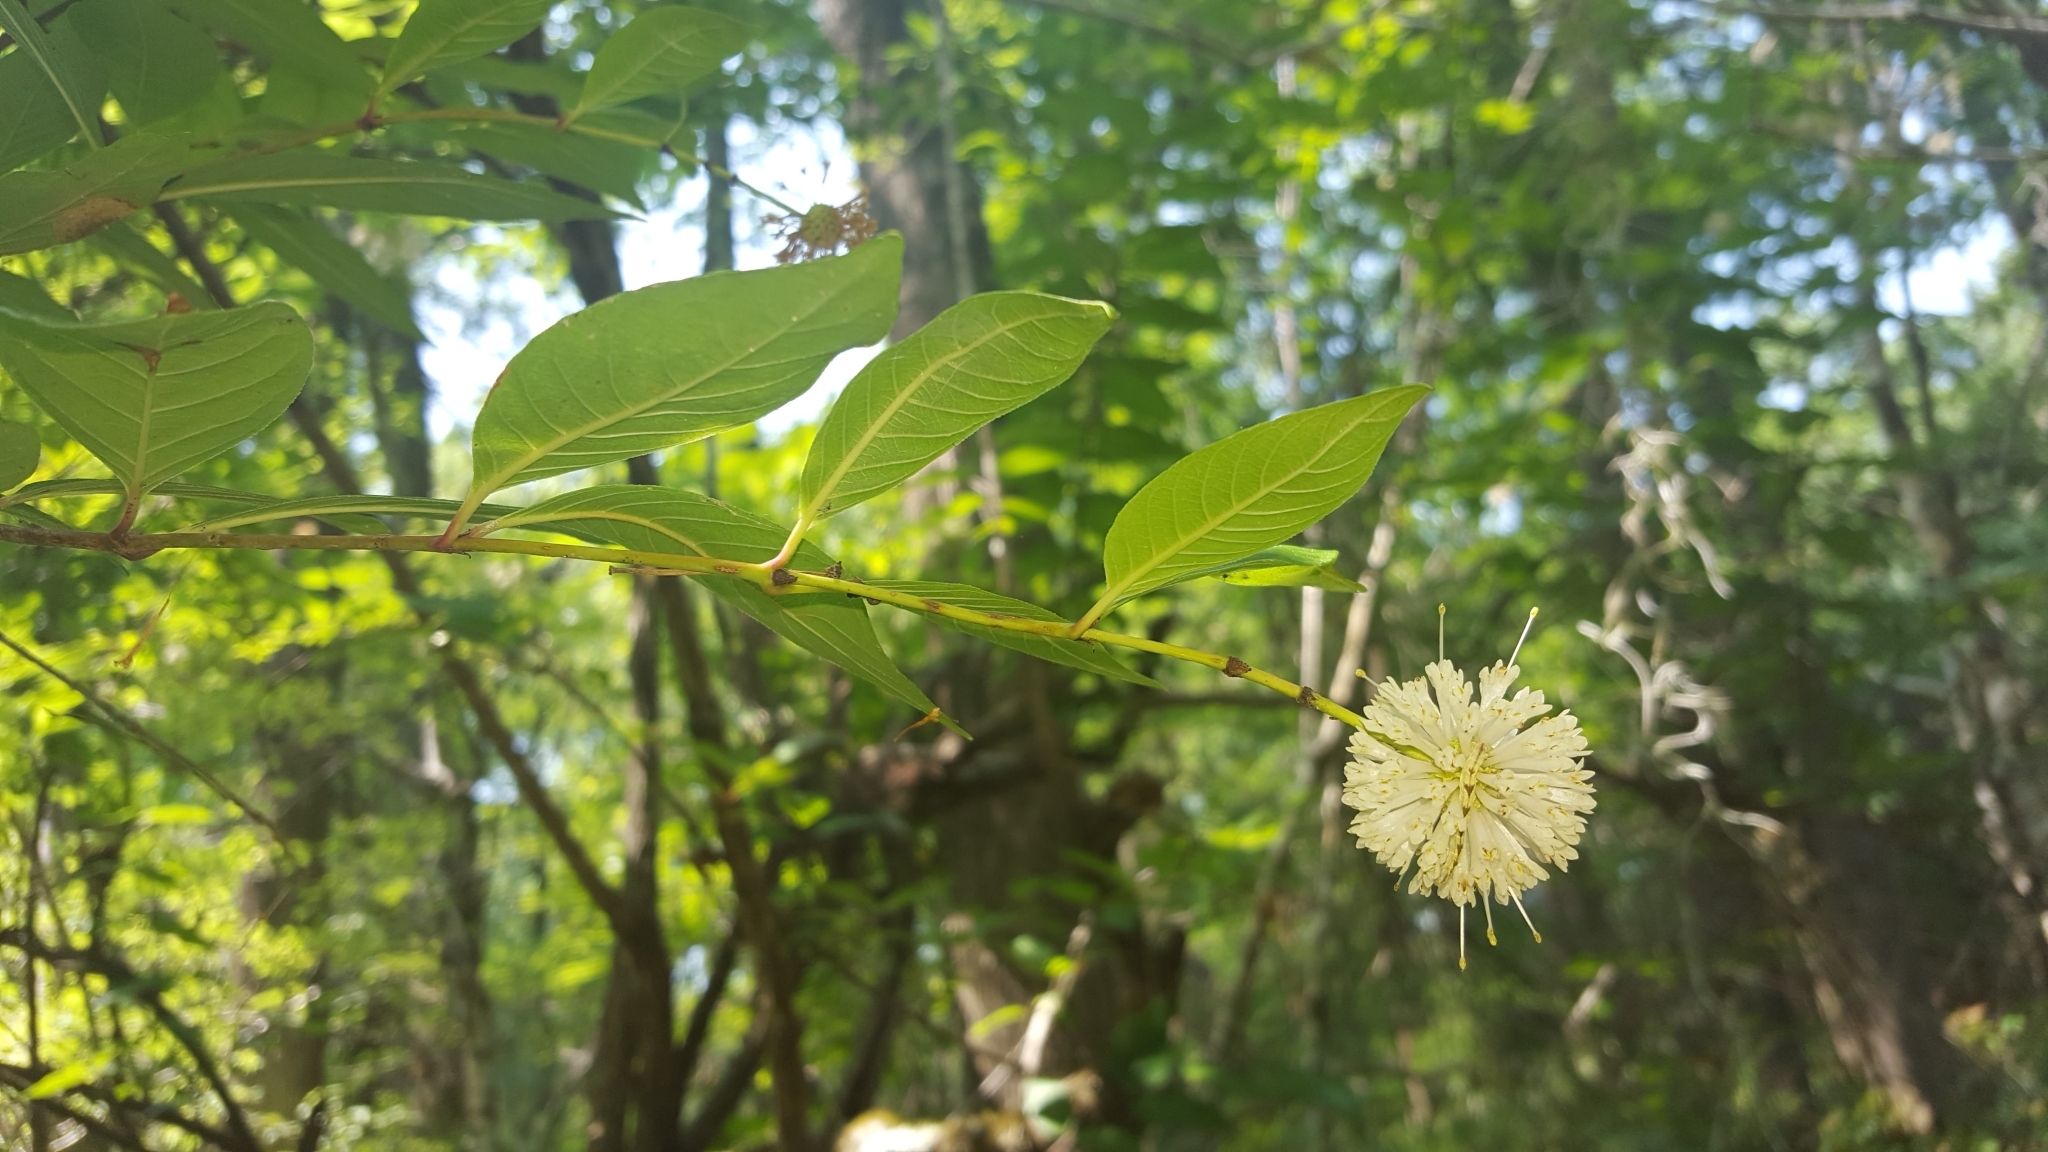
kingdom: Plantae
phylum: Tracheophyta
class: Magnoliopsida
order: Gentianales
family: Rubiaceae
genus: Cephalanthus
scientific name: Cephalanthus occidentalis
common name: Button-willow
